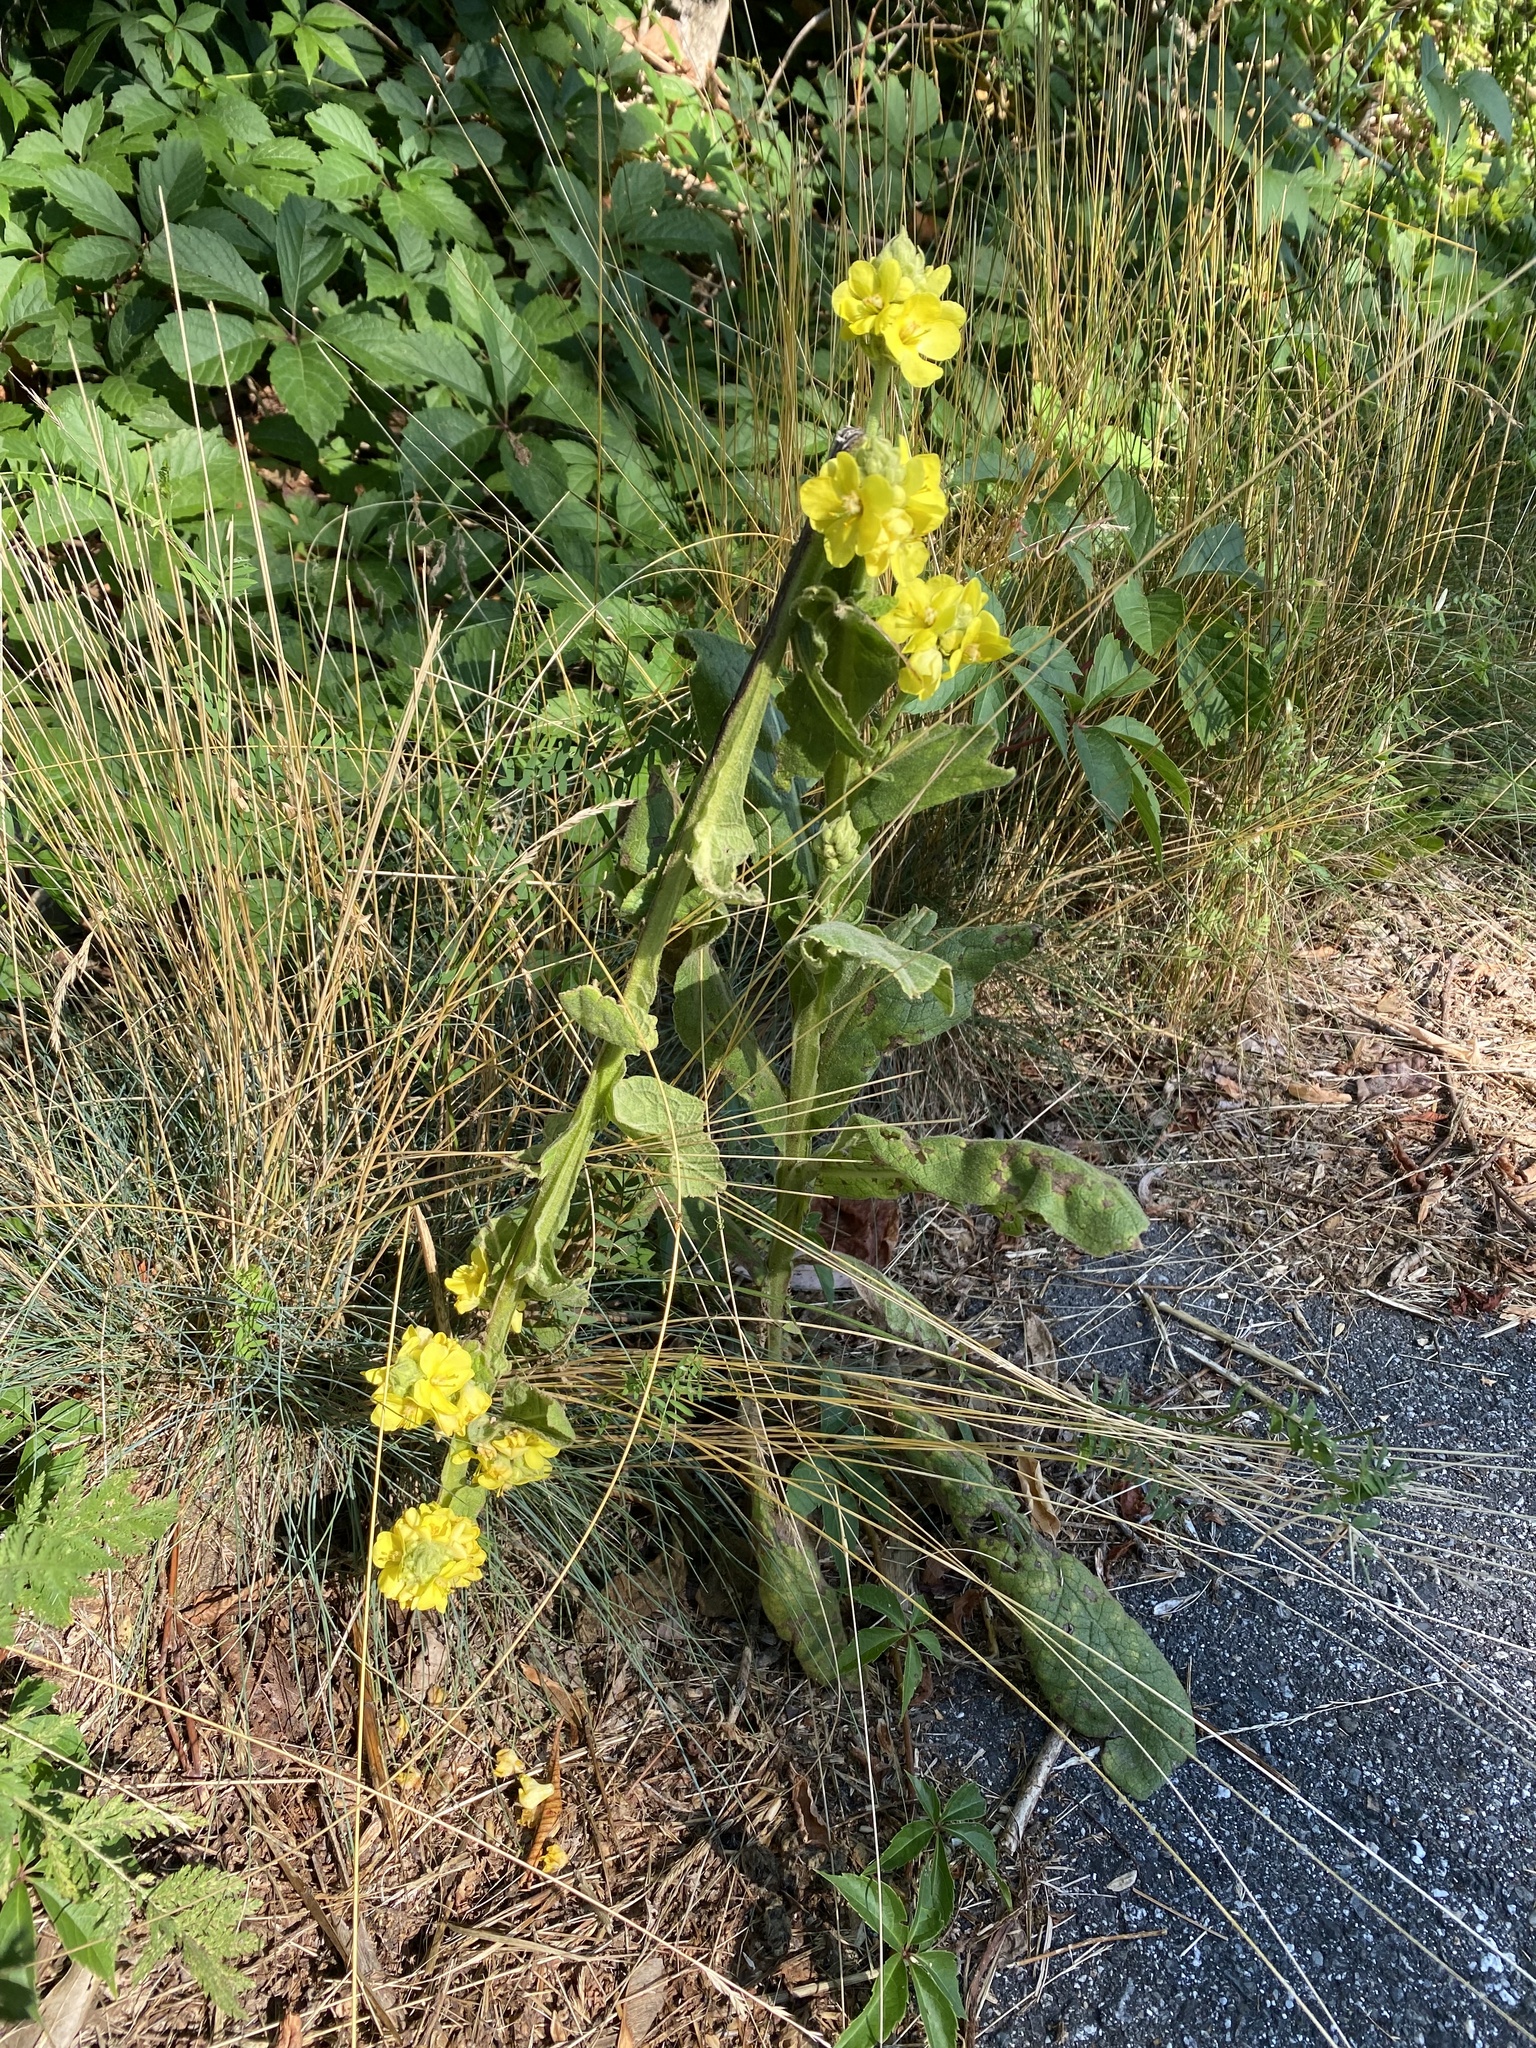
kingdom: Plantae
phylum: Tracheophyta
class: Magnoliopsida
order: Lamiales
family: Scrophulariaceae
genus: Verbascum
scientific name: Verbascum thapsus
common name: Common mullein
